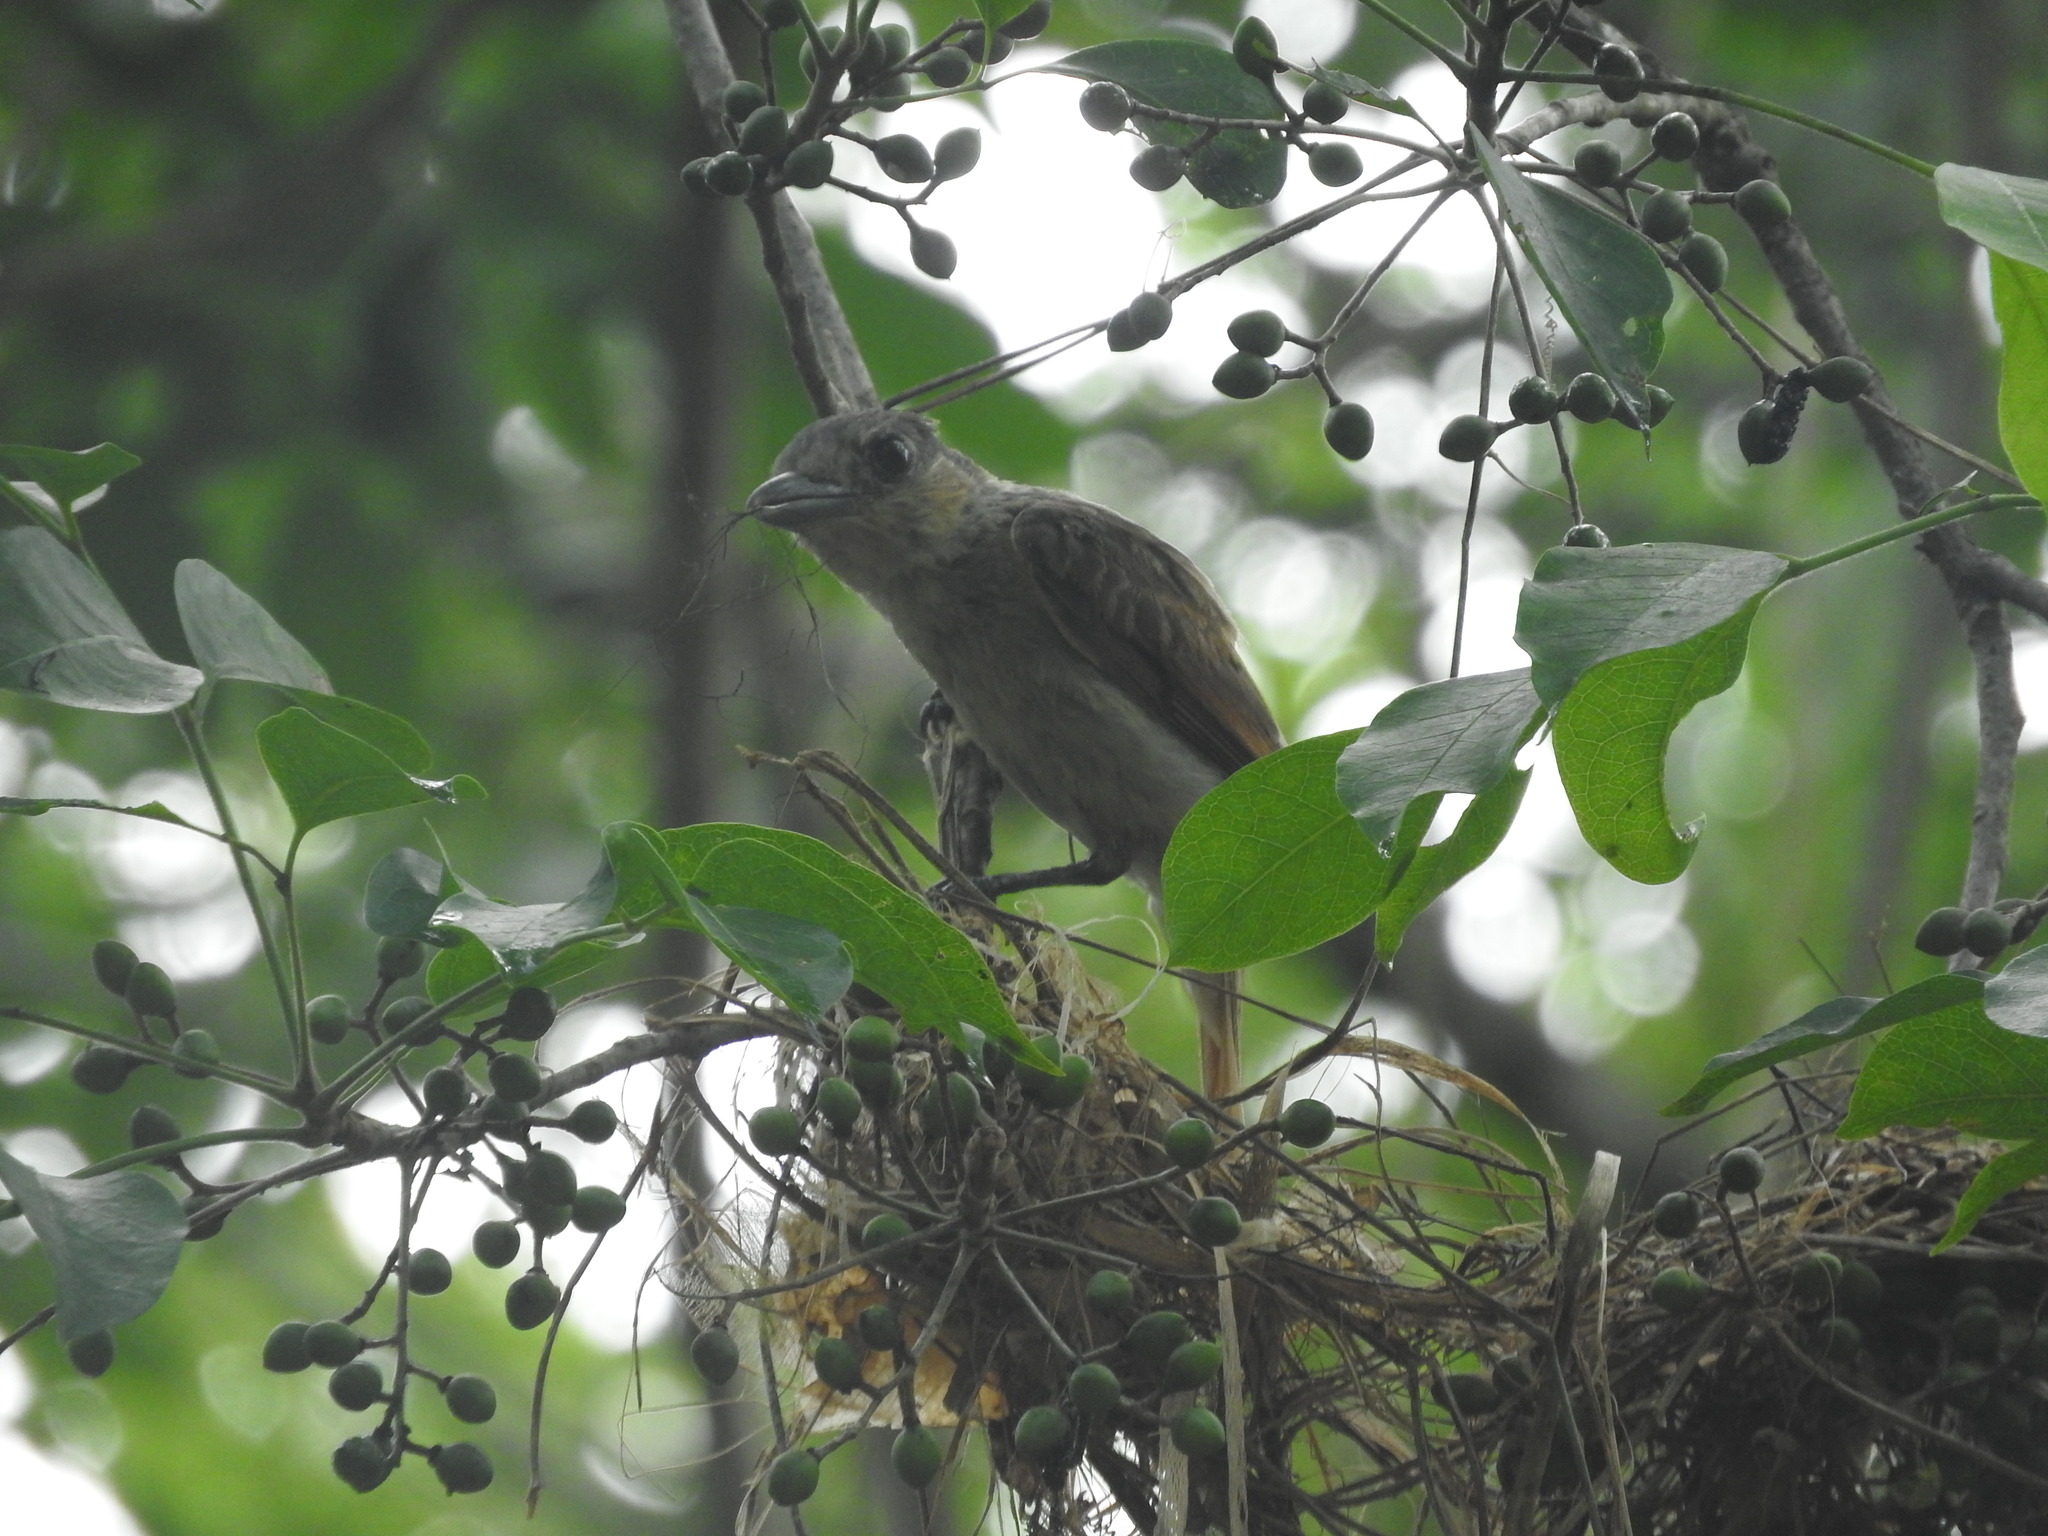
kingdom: Animalia
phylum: Chordata
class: Aves
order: Passeriformes
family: Cotingidae
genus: Pachyramphus
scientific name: Pachyramphus aglaiae
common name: Rose-throated becard
